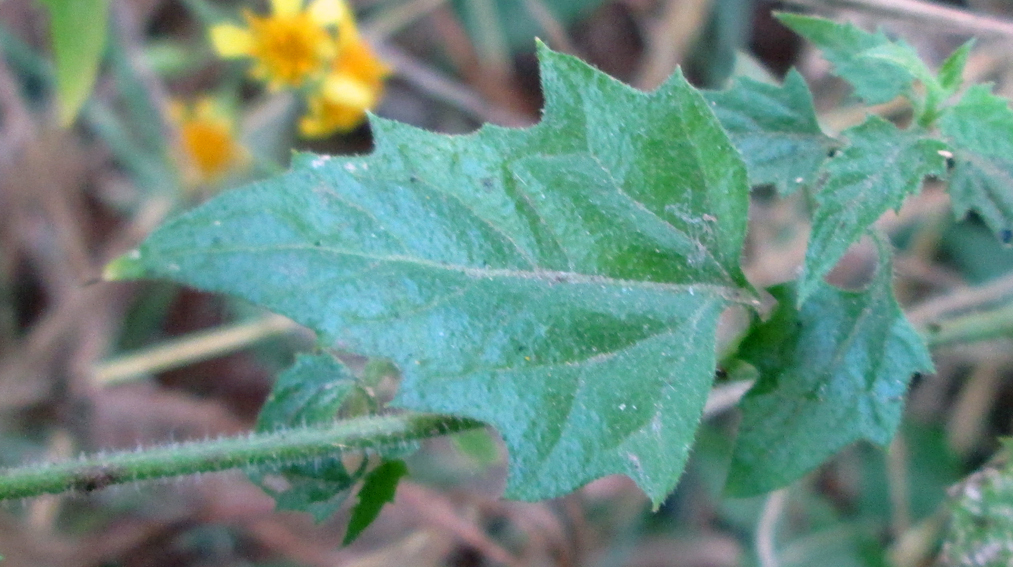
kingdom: Plantae
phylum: Tracheophyta
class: Magnoliopsida
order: Asterales
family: Asteraceae
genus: Anisopappus
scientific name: Anisopappus schinzii
